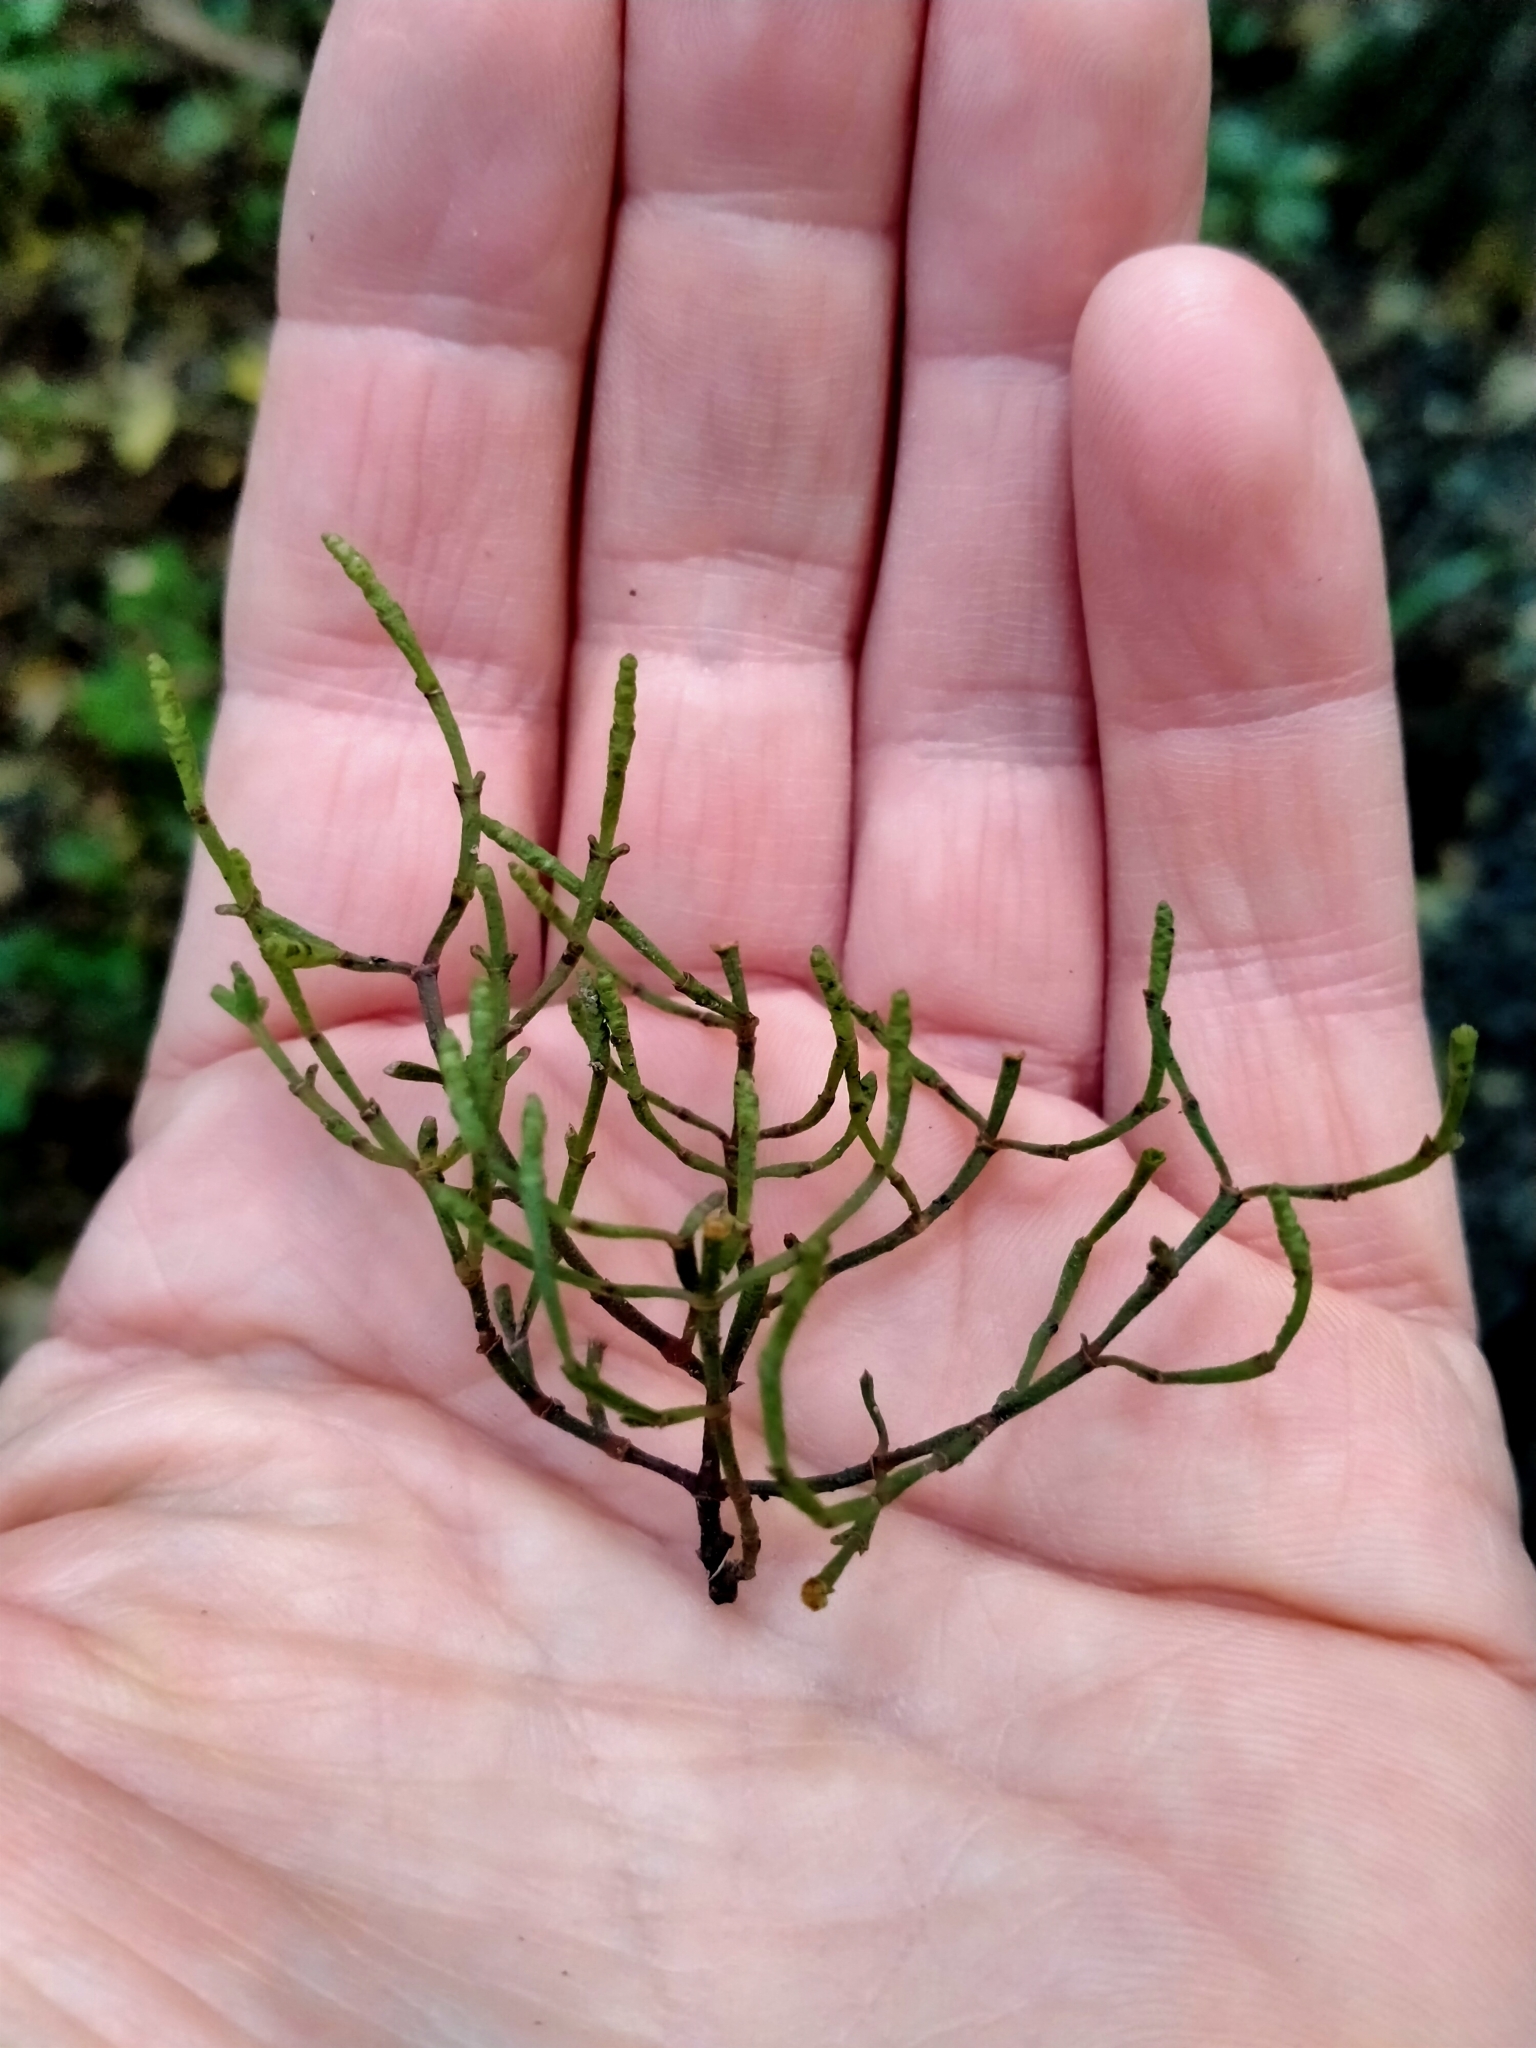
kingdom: Plantae
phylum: Tracheophyta
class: Magnoliopsida
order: Santalales
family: Viscaceae
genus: Korthalsella
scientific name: Korthalsella salicornioides
